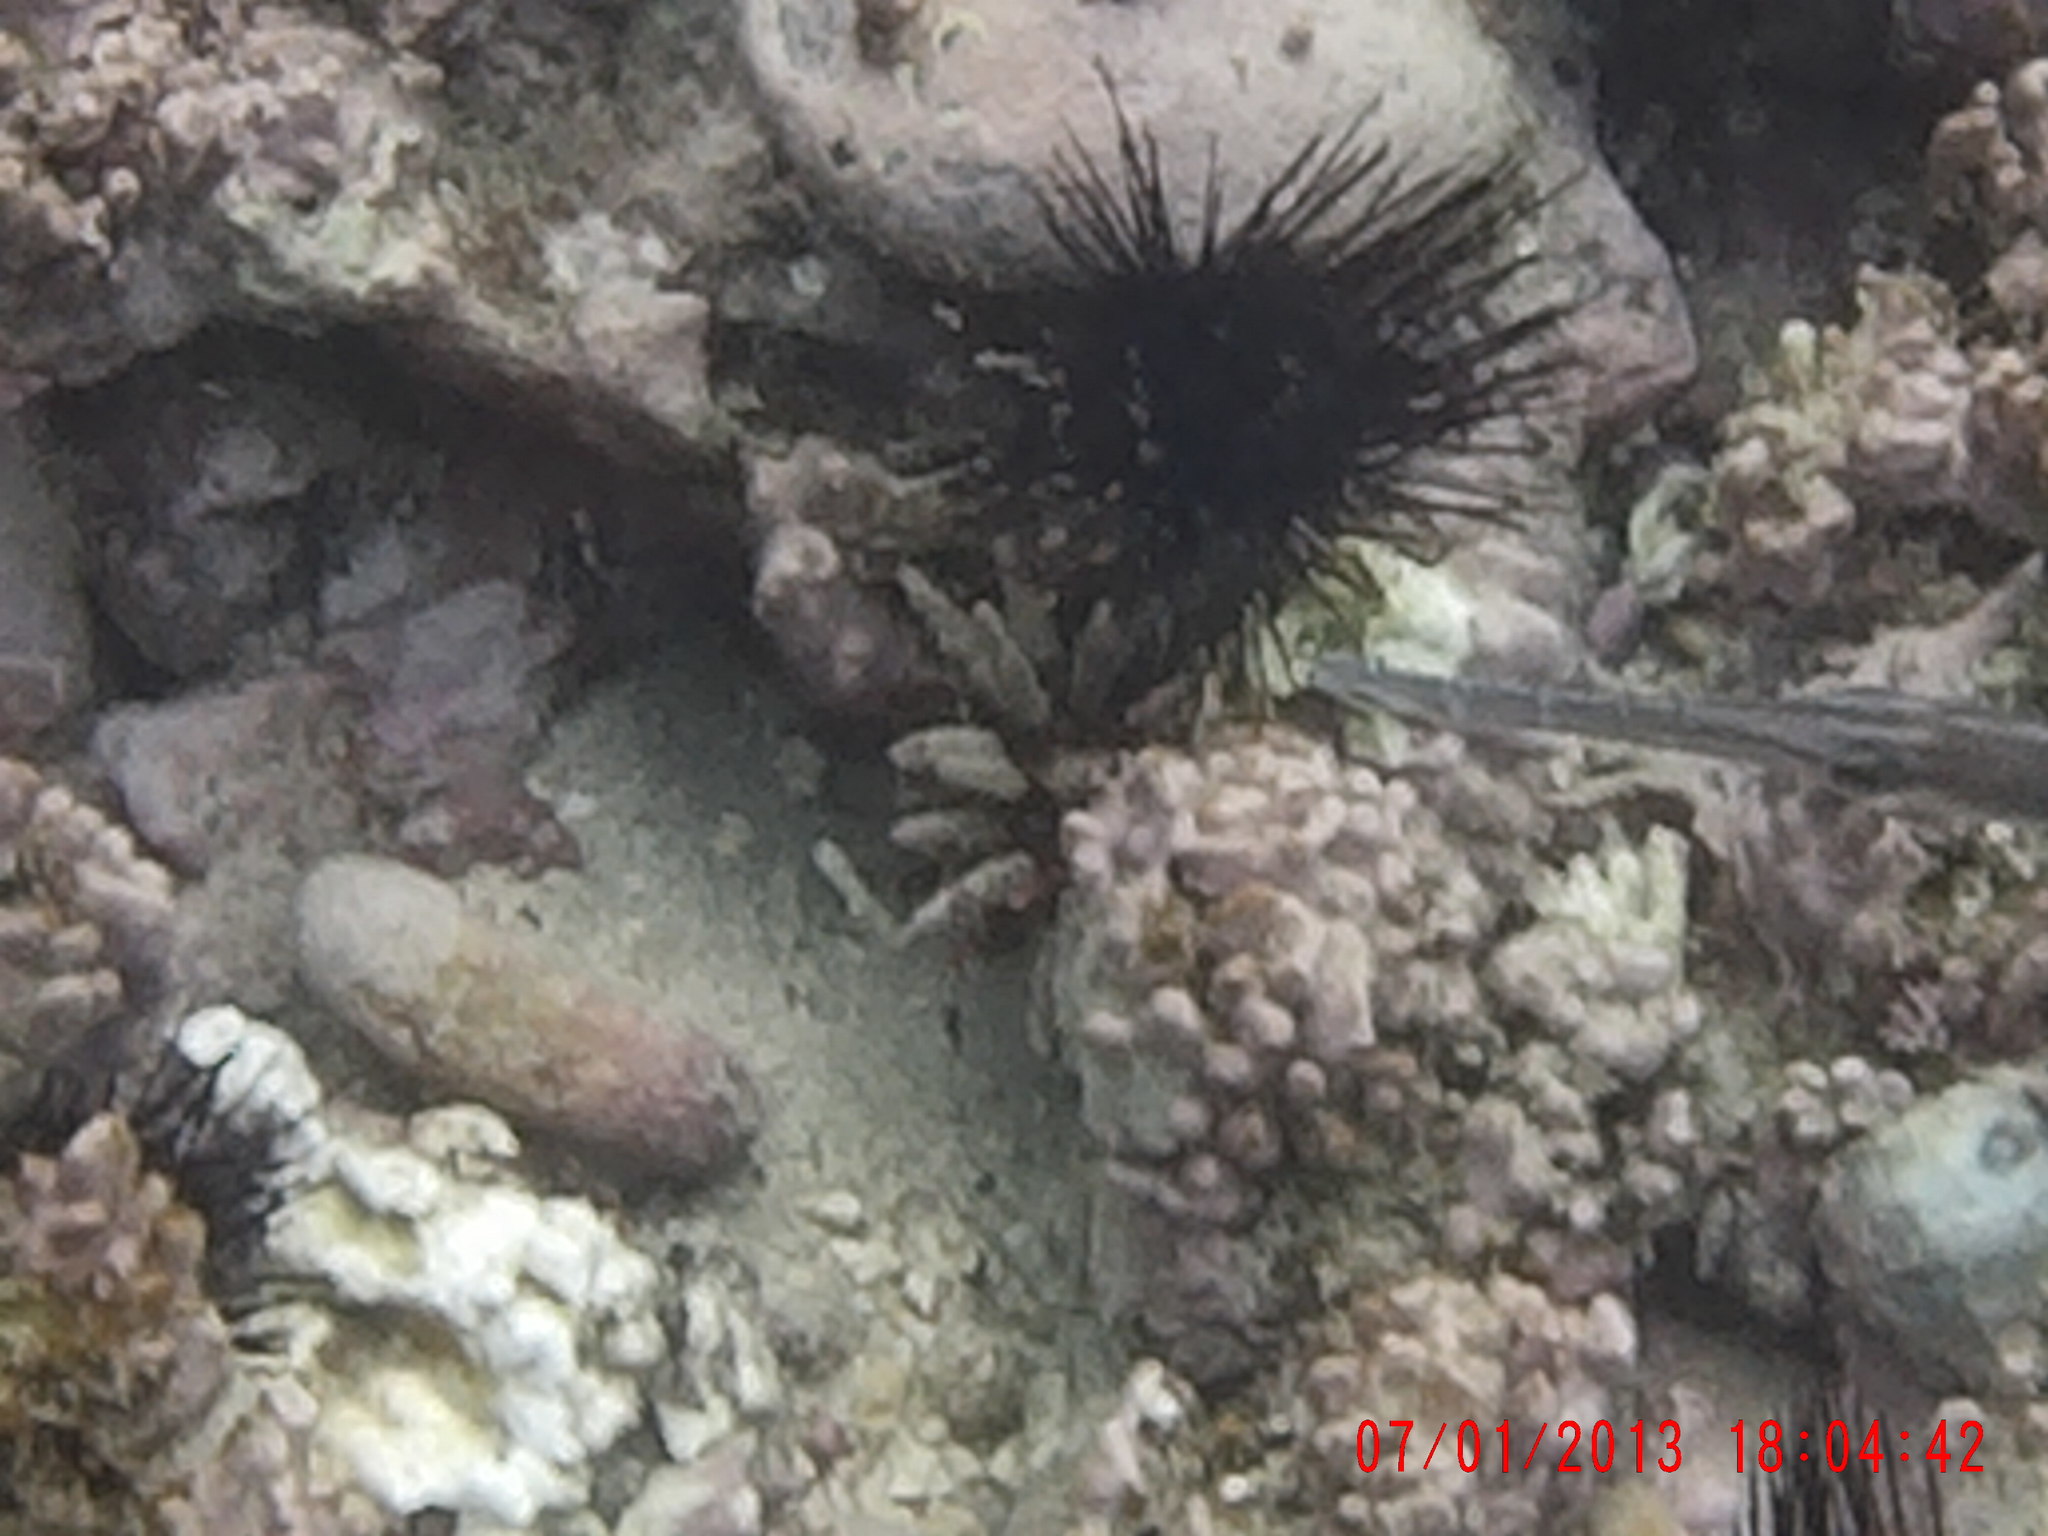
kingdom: Animalia
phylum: Chordata
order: Syngnathiformes
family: Aulostomidae
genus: Aulostomus
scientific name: Aulostomus strigosus
